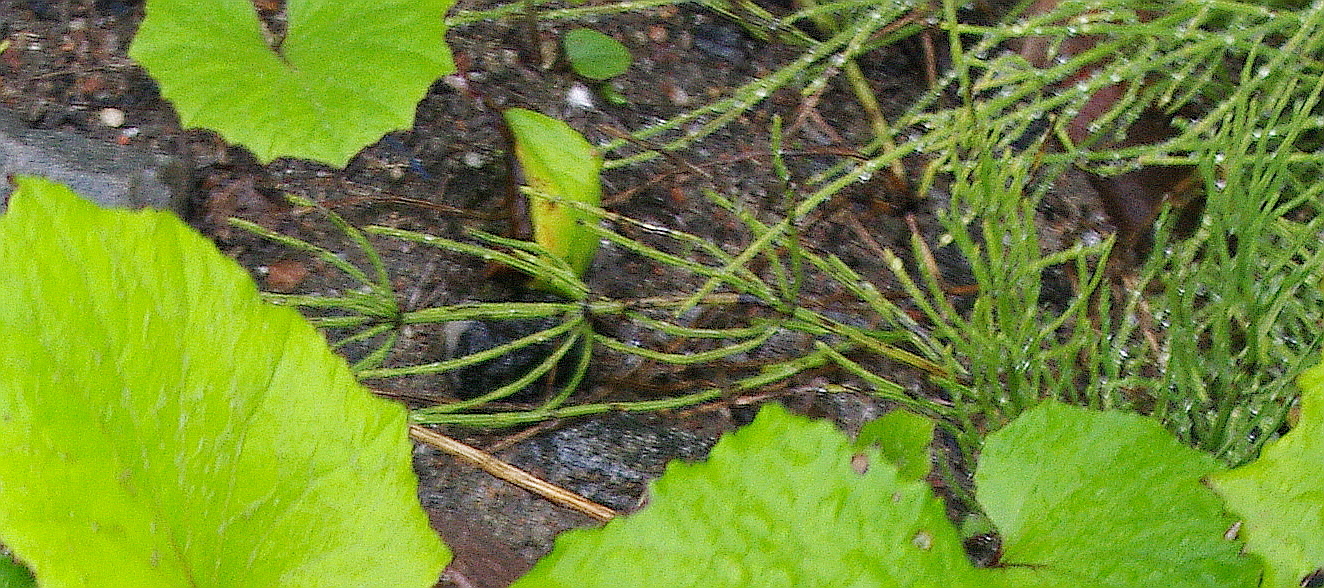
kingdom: Plantae
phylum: Tracheophyta
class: Polypodiopsida
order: Equisetales
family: Equisetaceae
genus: Equisetum
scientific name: Equisetum arvense
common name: Field horsetail
